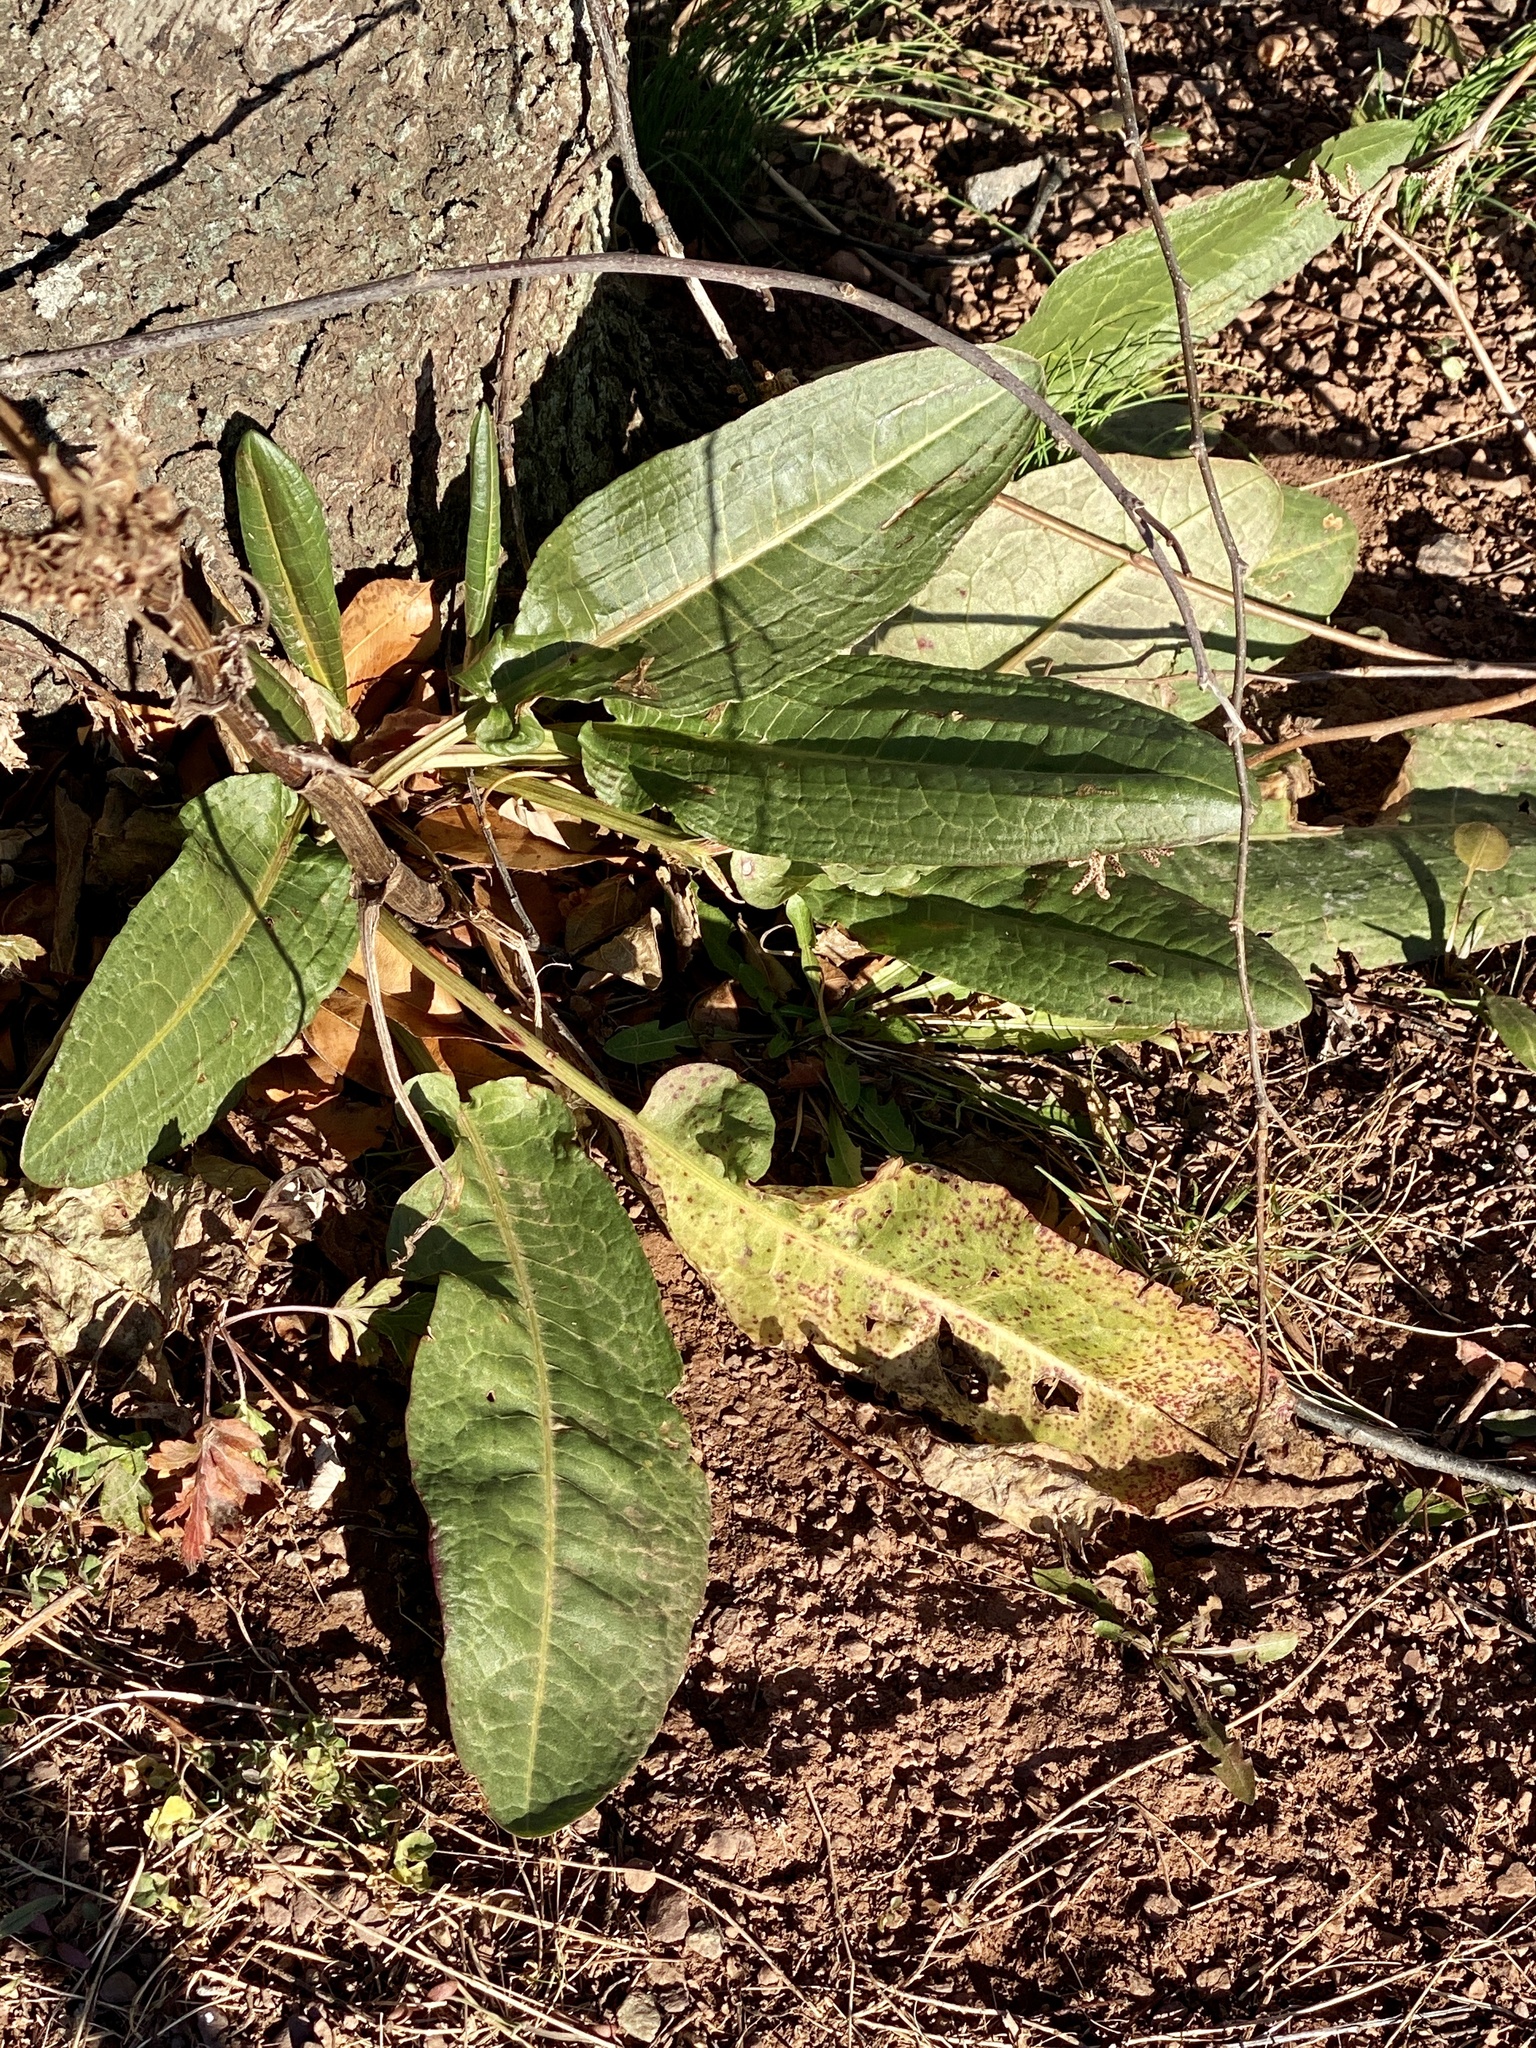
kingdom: Plantae
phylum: Tracheophyta
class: Magnoliopsida
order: Caryophyllales
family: Polygonaceae
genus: Rumex
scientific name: Rumex crispus
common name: Curled dock
